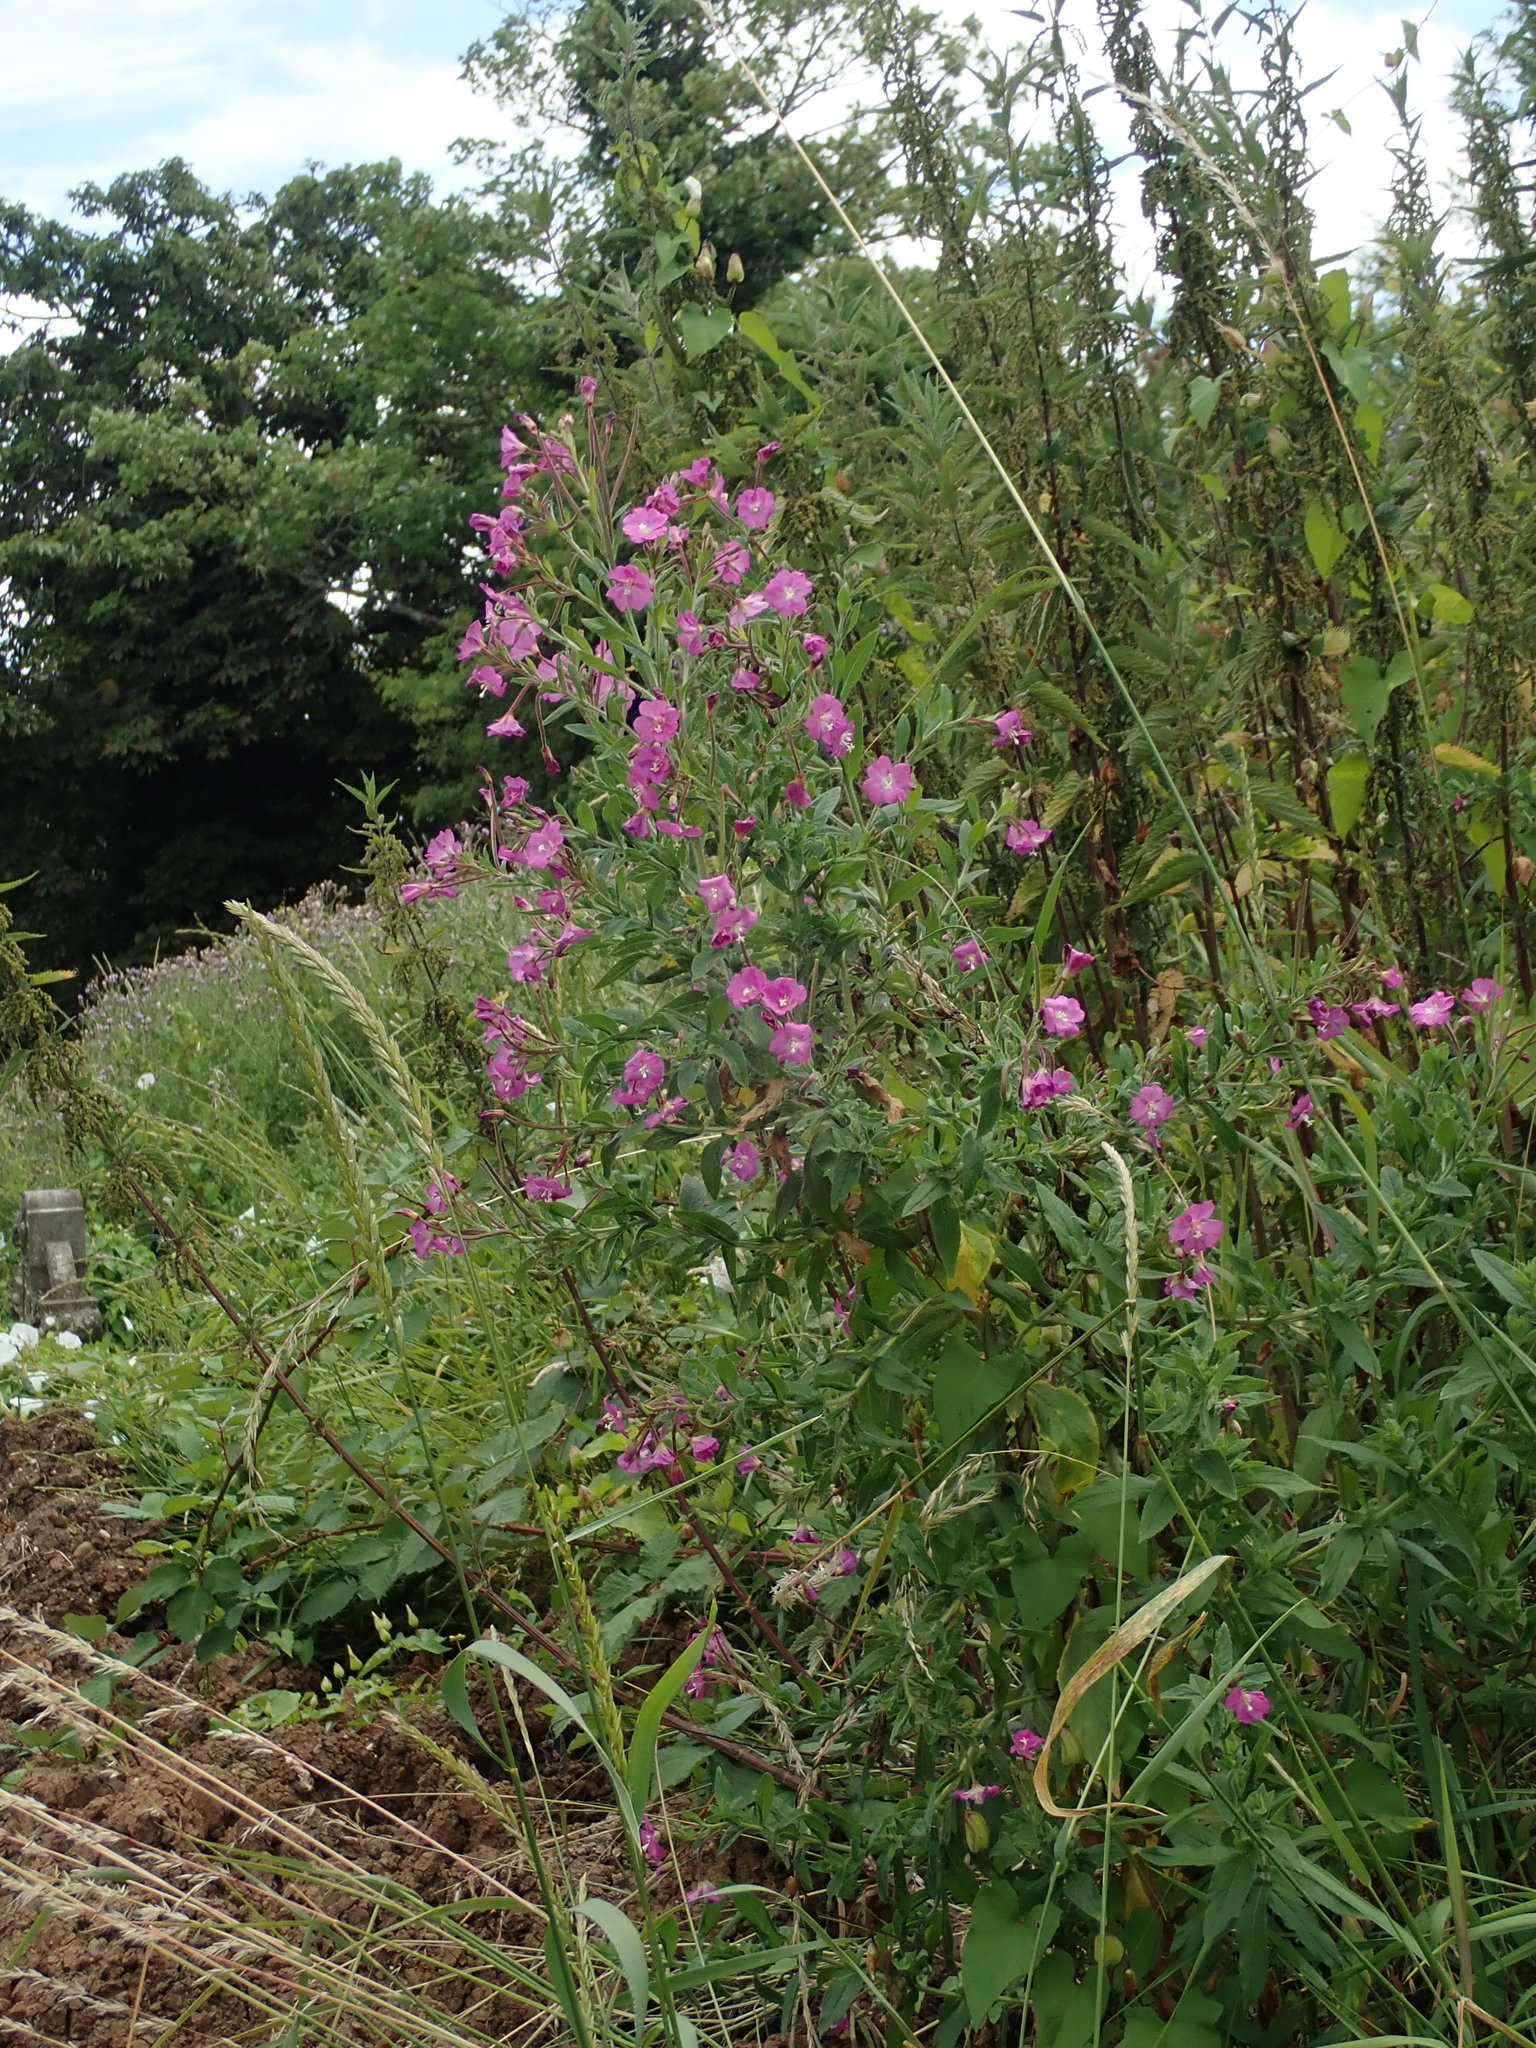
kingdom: Plantae
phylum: Tracheophyta
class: Magnoliopsida
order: Myrtales
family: Onagraceae
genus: Epilobium
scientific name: Epilobium hirsutum
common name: Great willowherb
